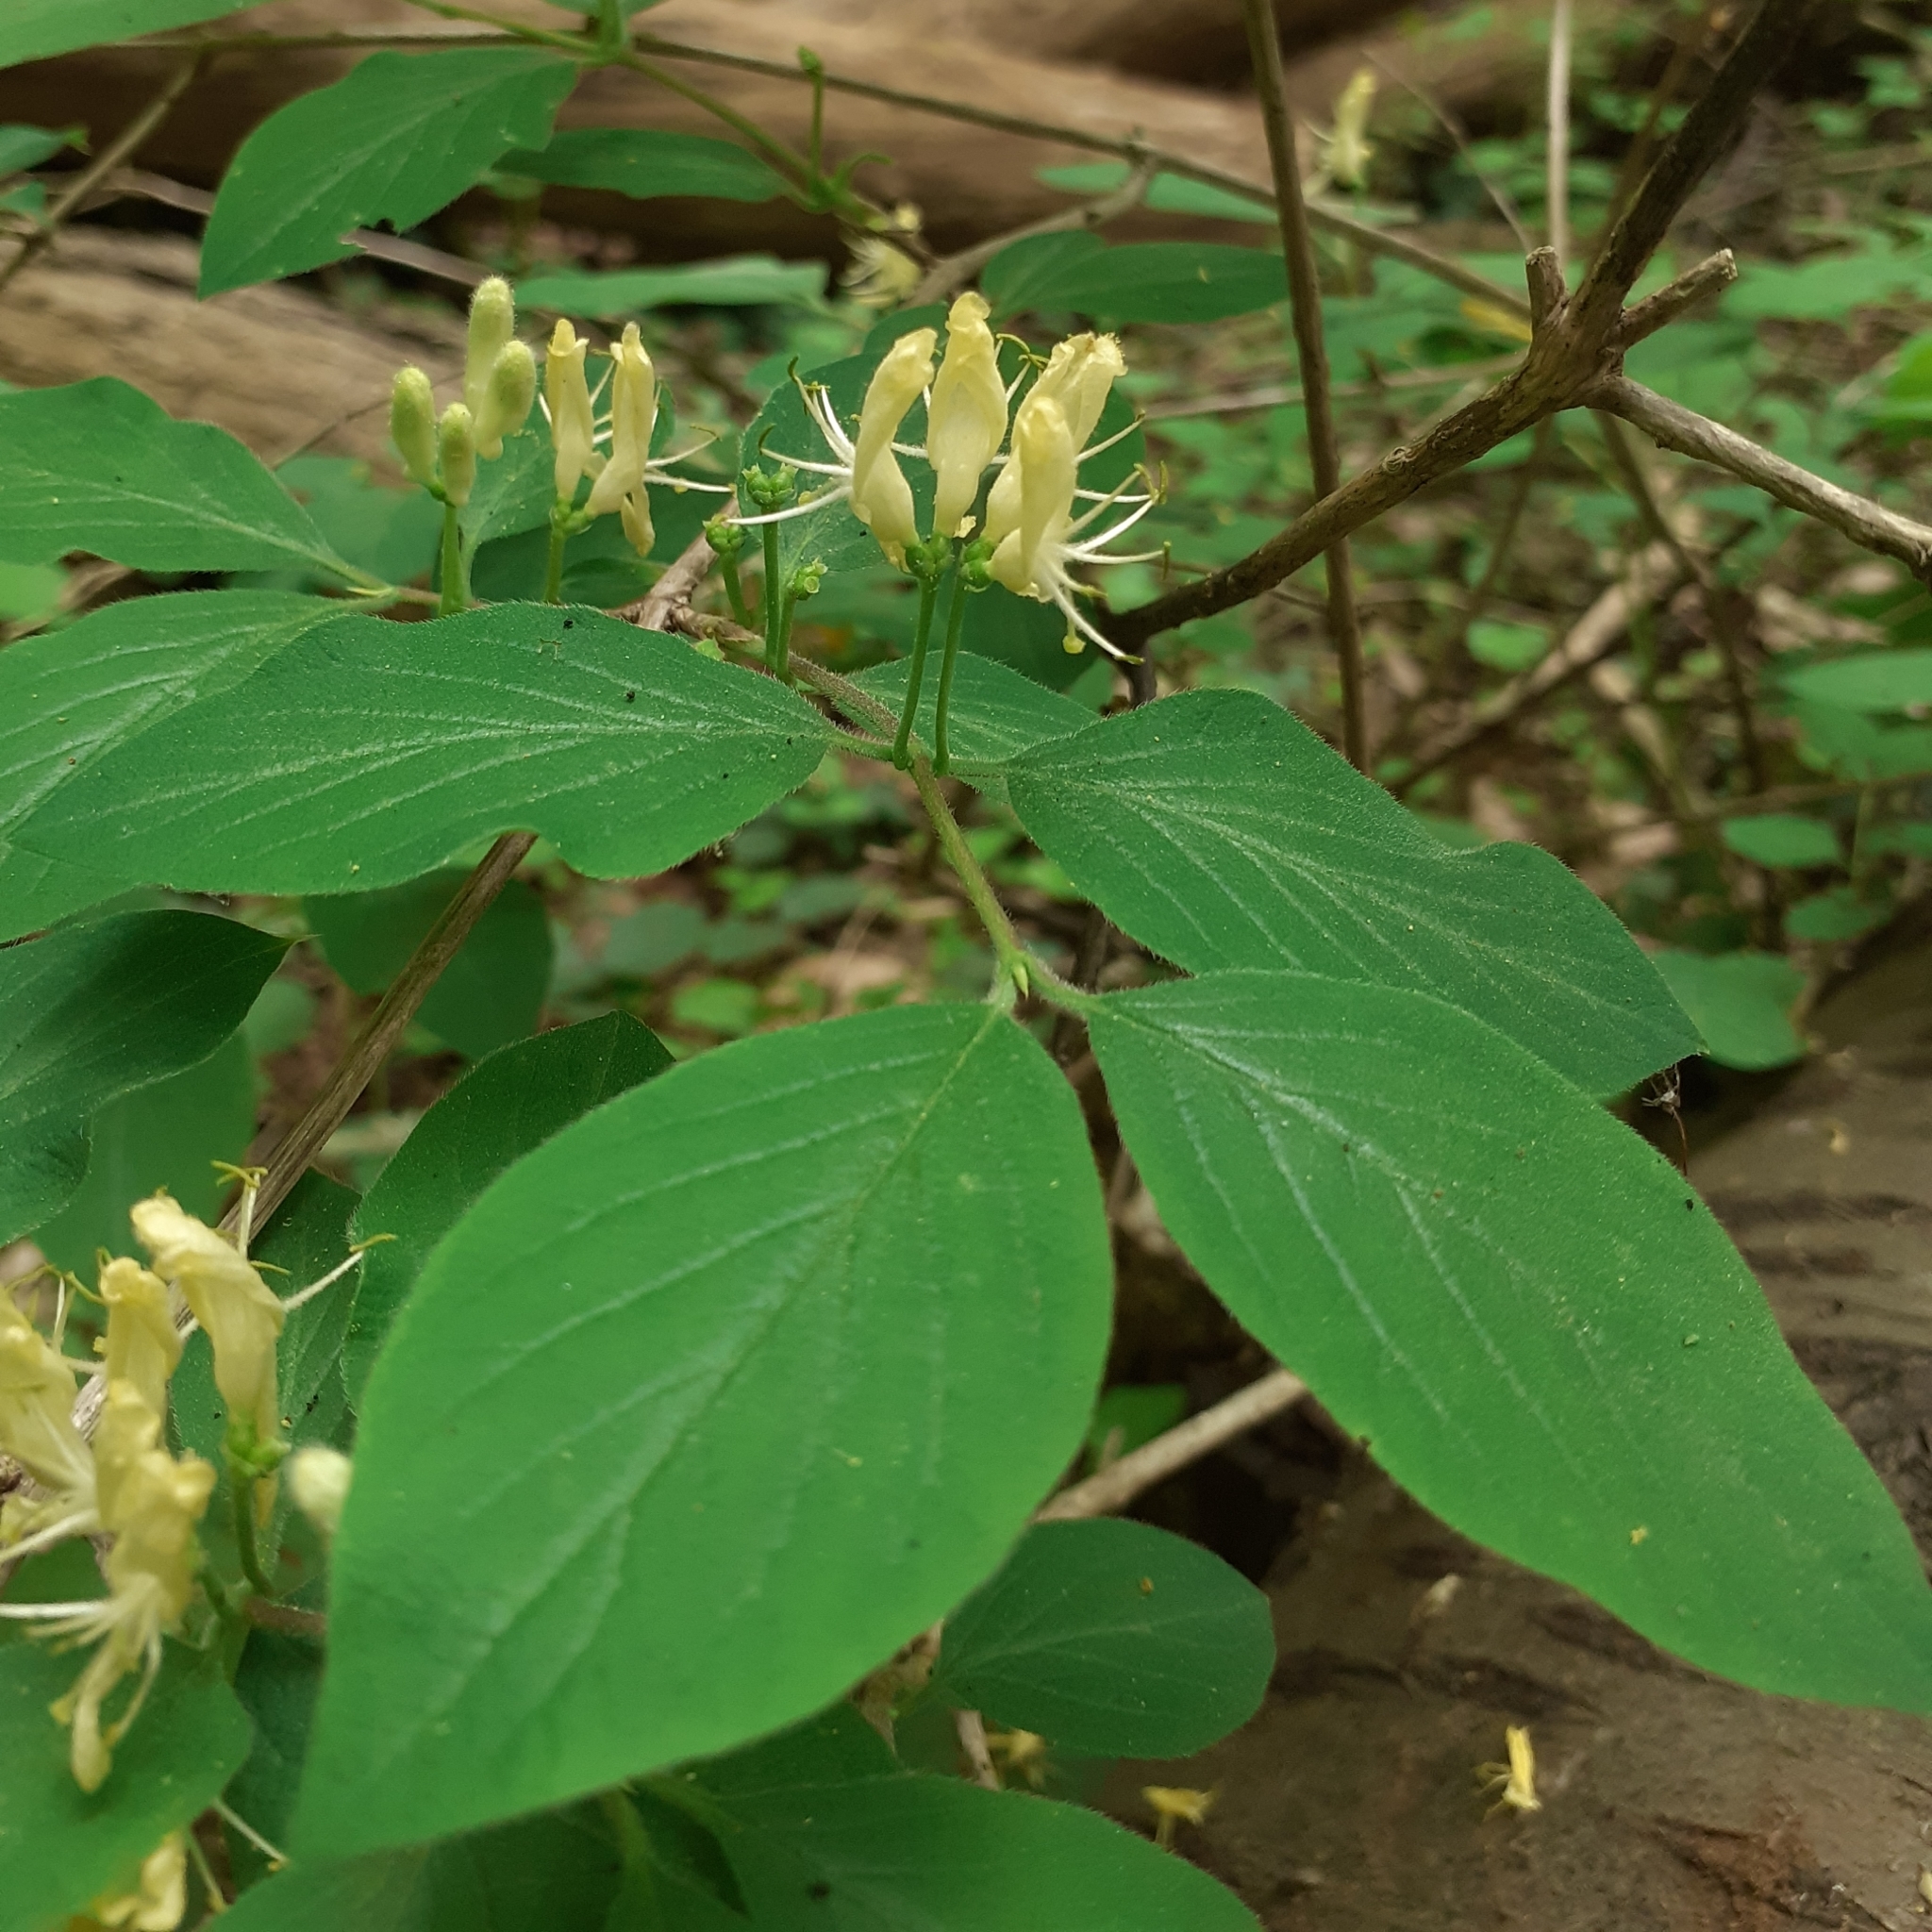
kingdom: Plantae
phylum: Tracheophyta
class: Magnoliopsida
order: Dipsacales
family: Caprifoliaceae
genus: Lonicera
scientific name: Lonicera xylosteum
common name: Fly honeysuckle
